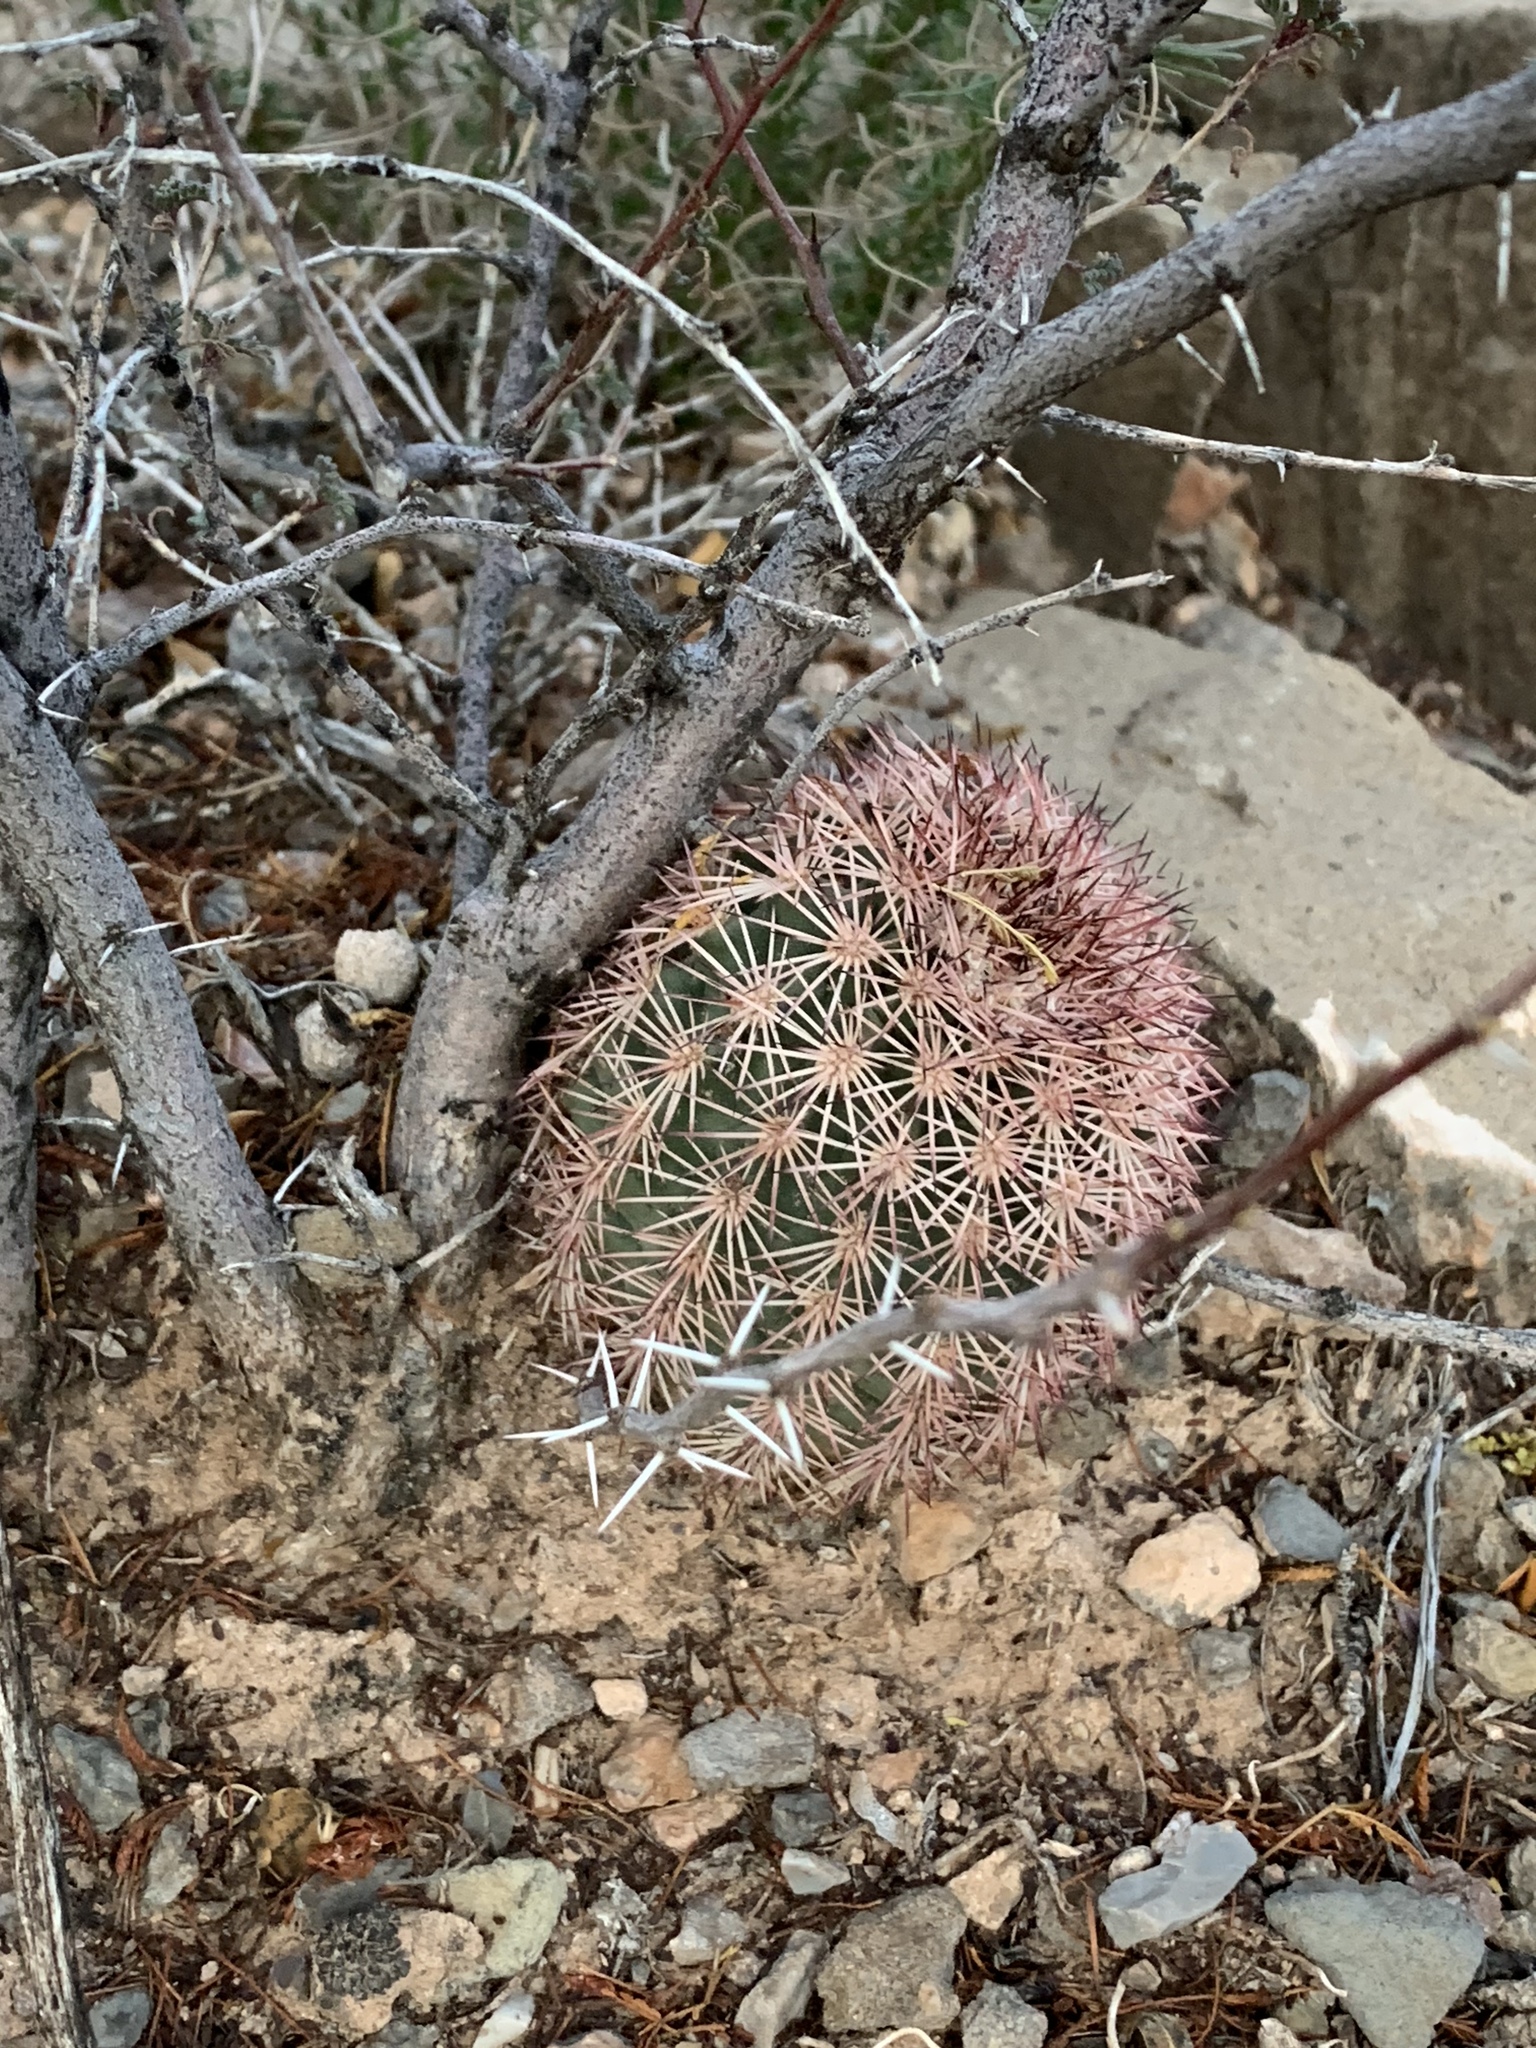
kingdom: Plantae
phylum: Tracheophyta
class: Magnoliopsida
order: Caryophyllales
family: Cactaceae
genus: Echinocereus
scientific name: Echinocereus dasyacanthus
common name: Spiny hedgehog cactus
